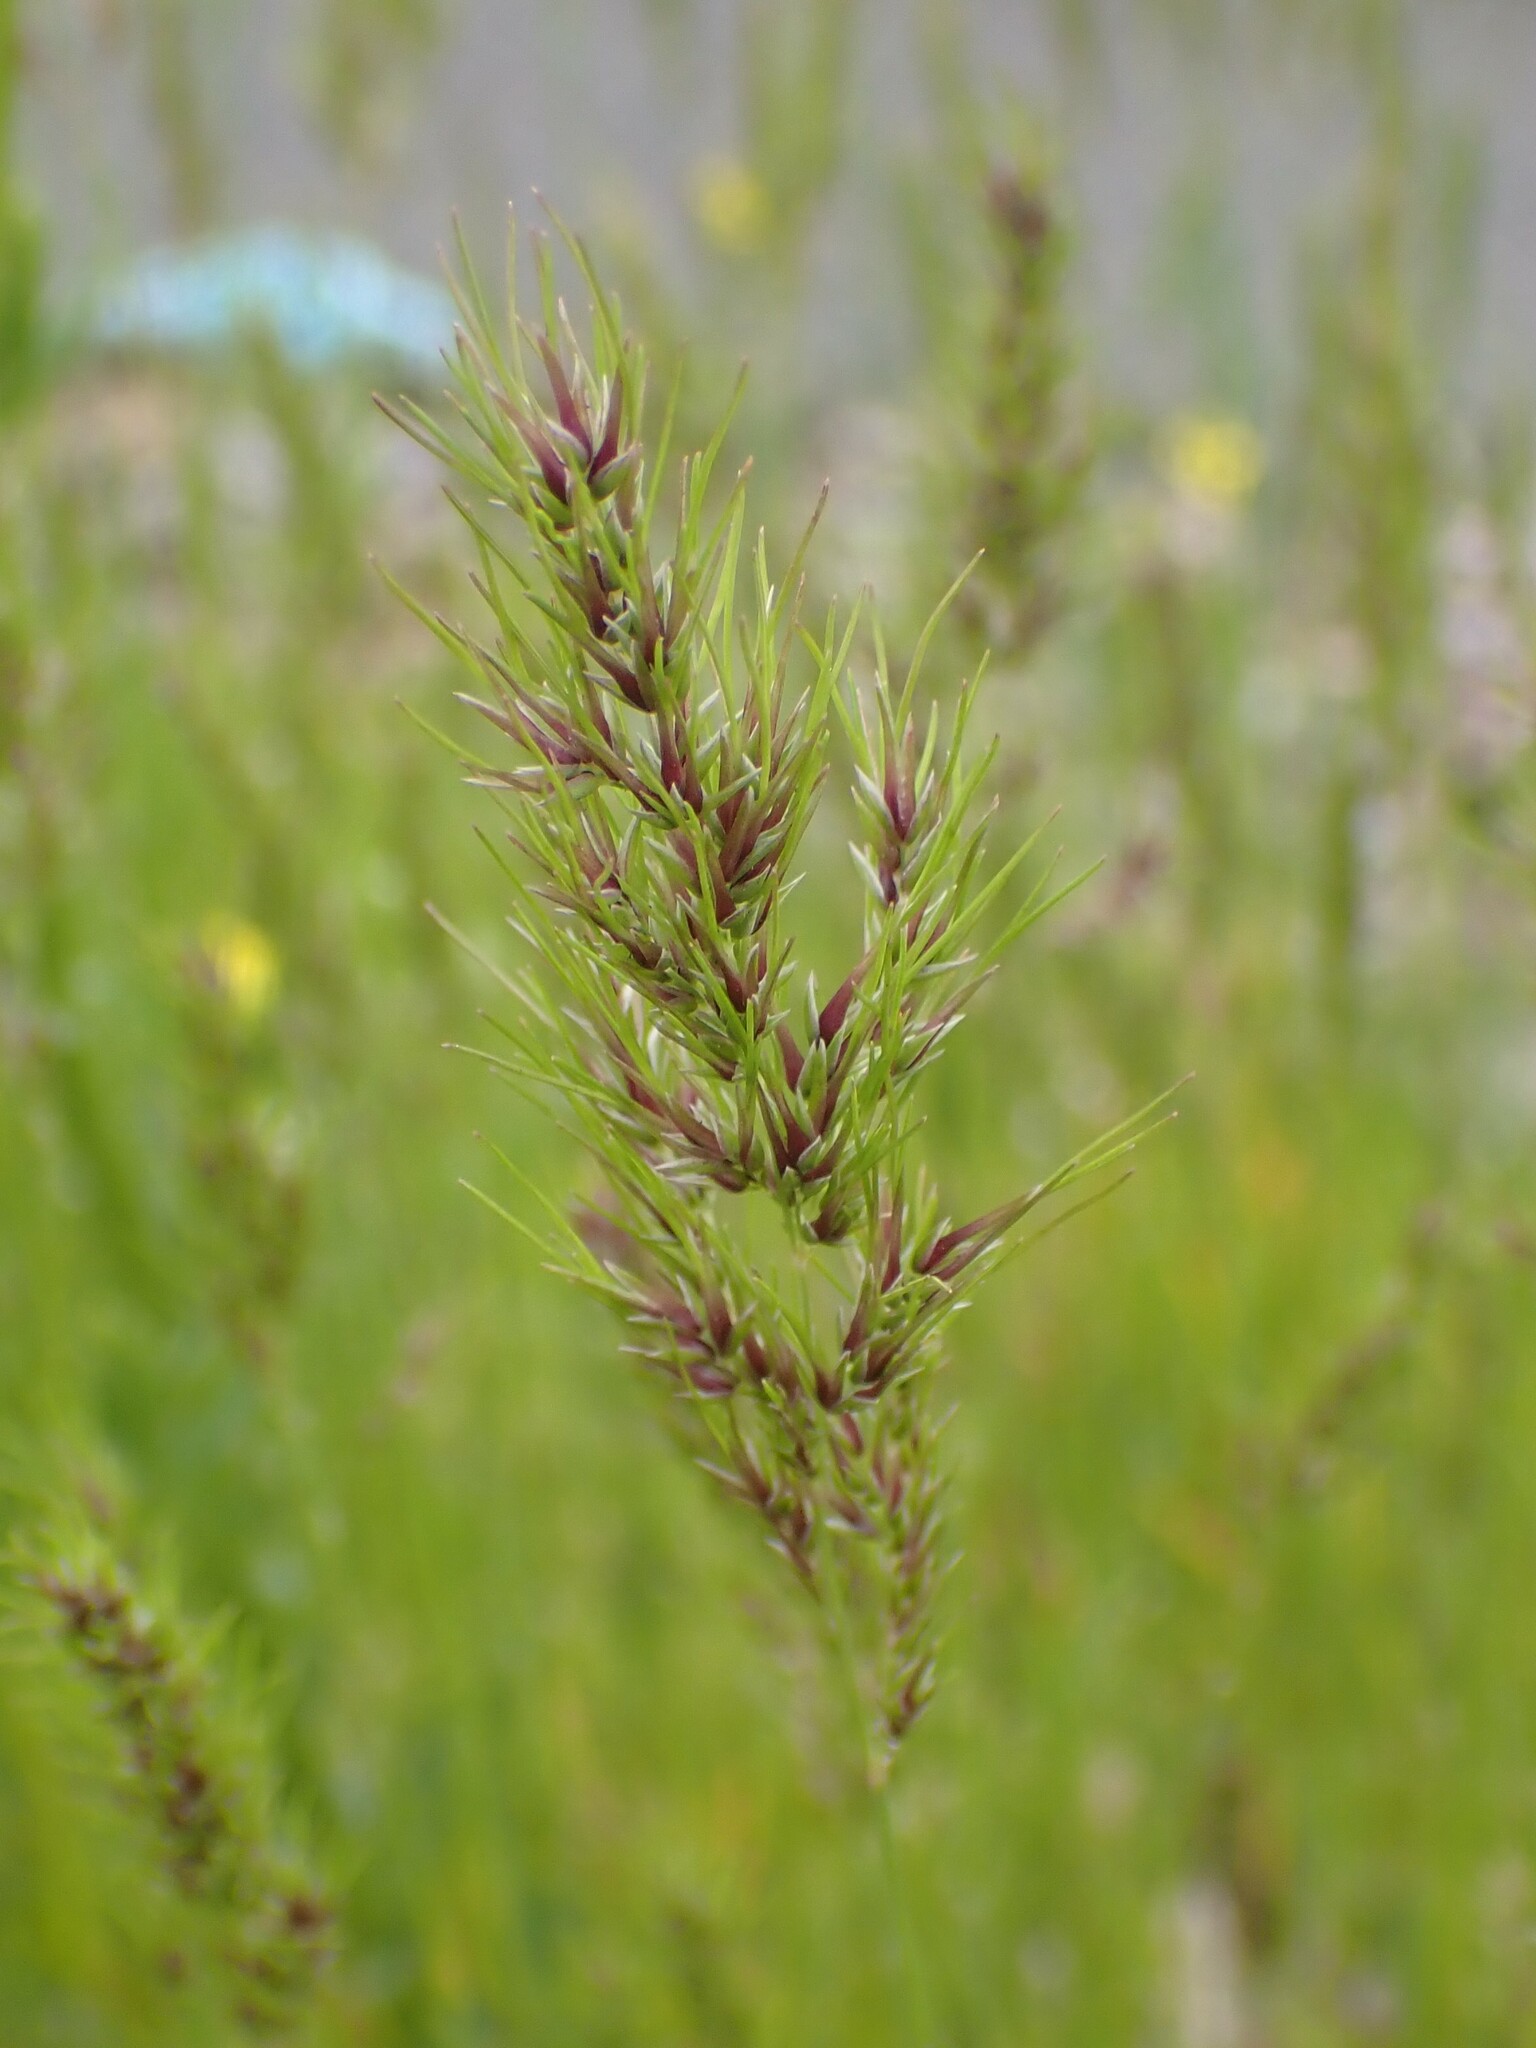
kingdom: Plantae
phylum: Tracheophyta
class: Liliopsida
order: Poales
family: Poaceae
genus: Poa
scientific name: Poa bulbosa
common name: Bulbous bluegrass
